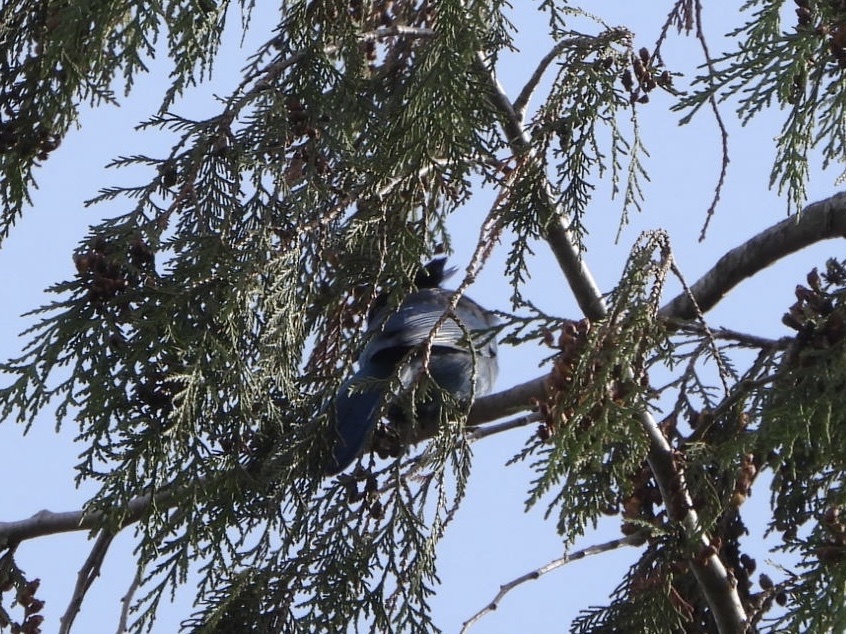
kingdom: Animalia
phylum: Chordata
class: Aves
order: Passeriformes
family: Corvidae
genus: Cyanocitta
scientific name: Cyanocitta stelleri
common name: Steller's jay
